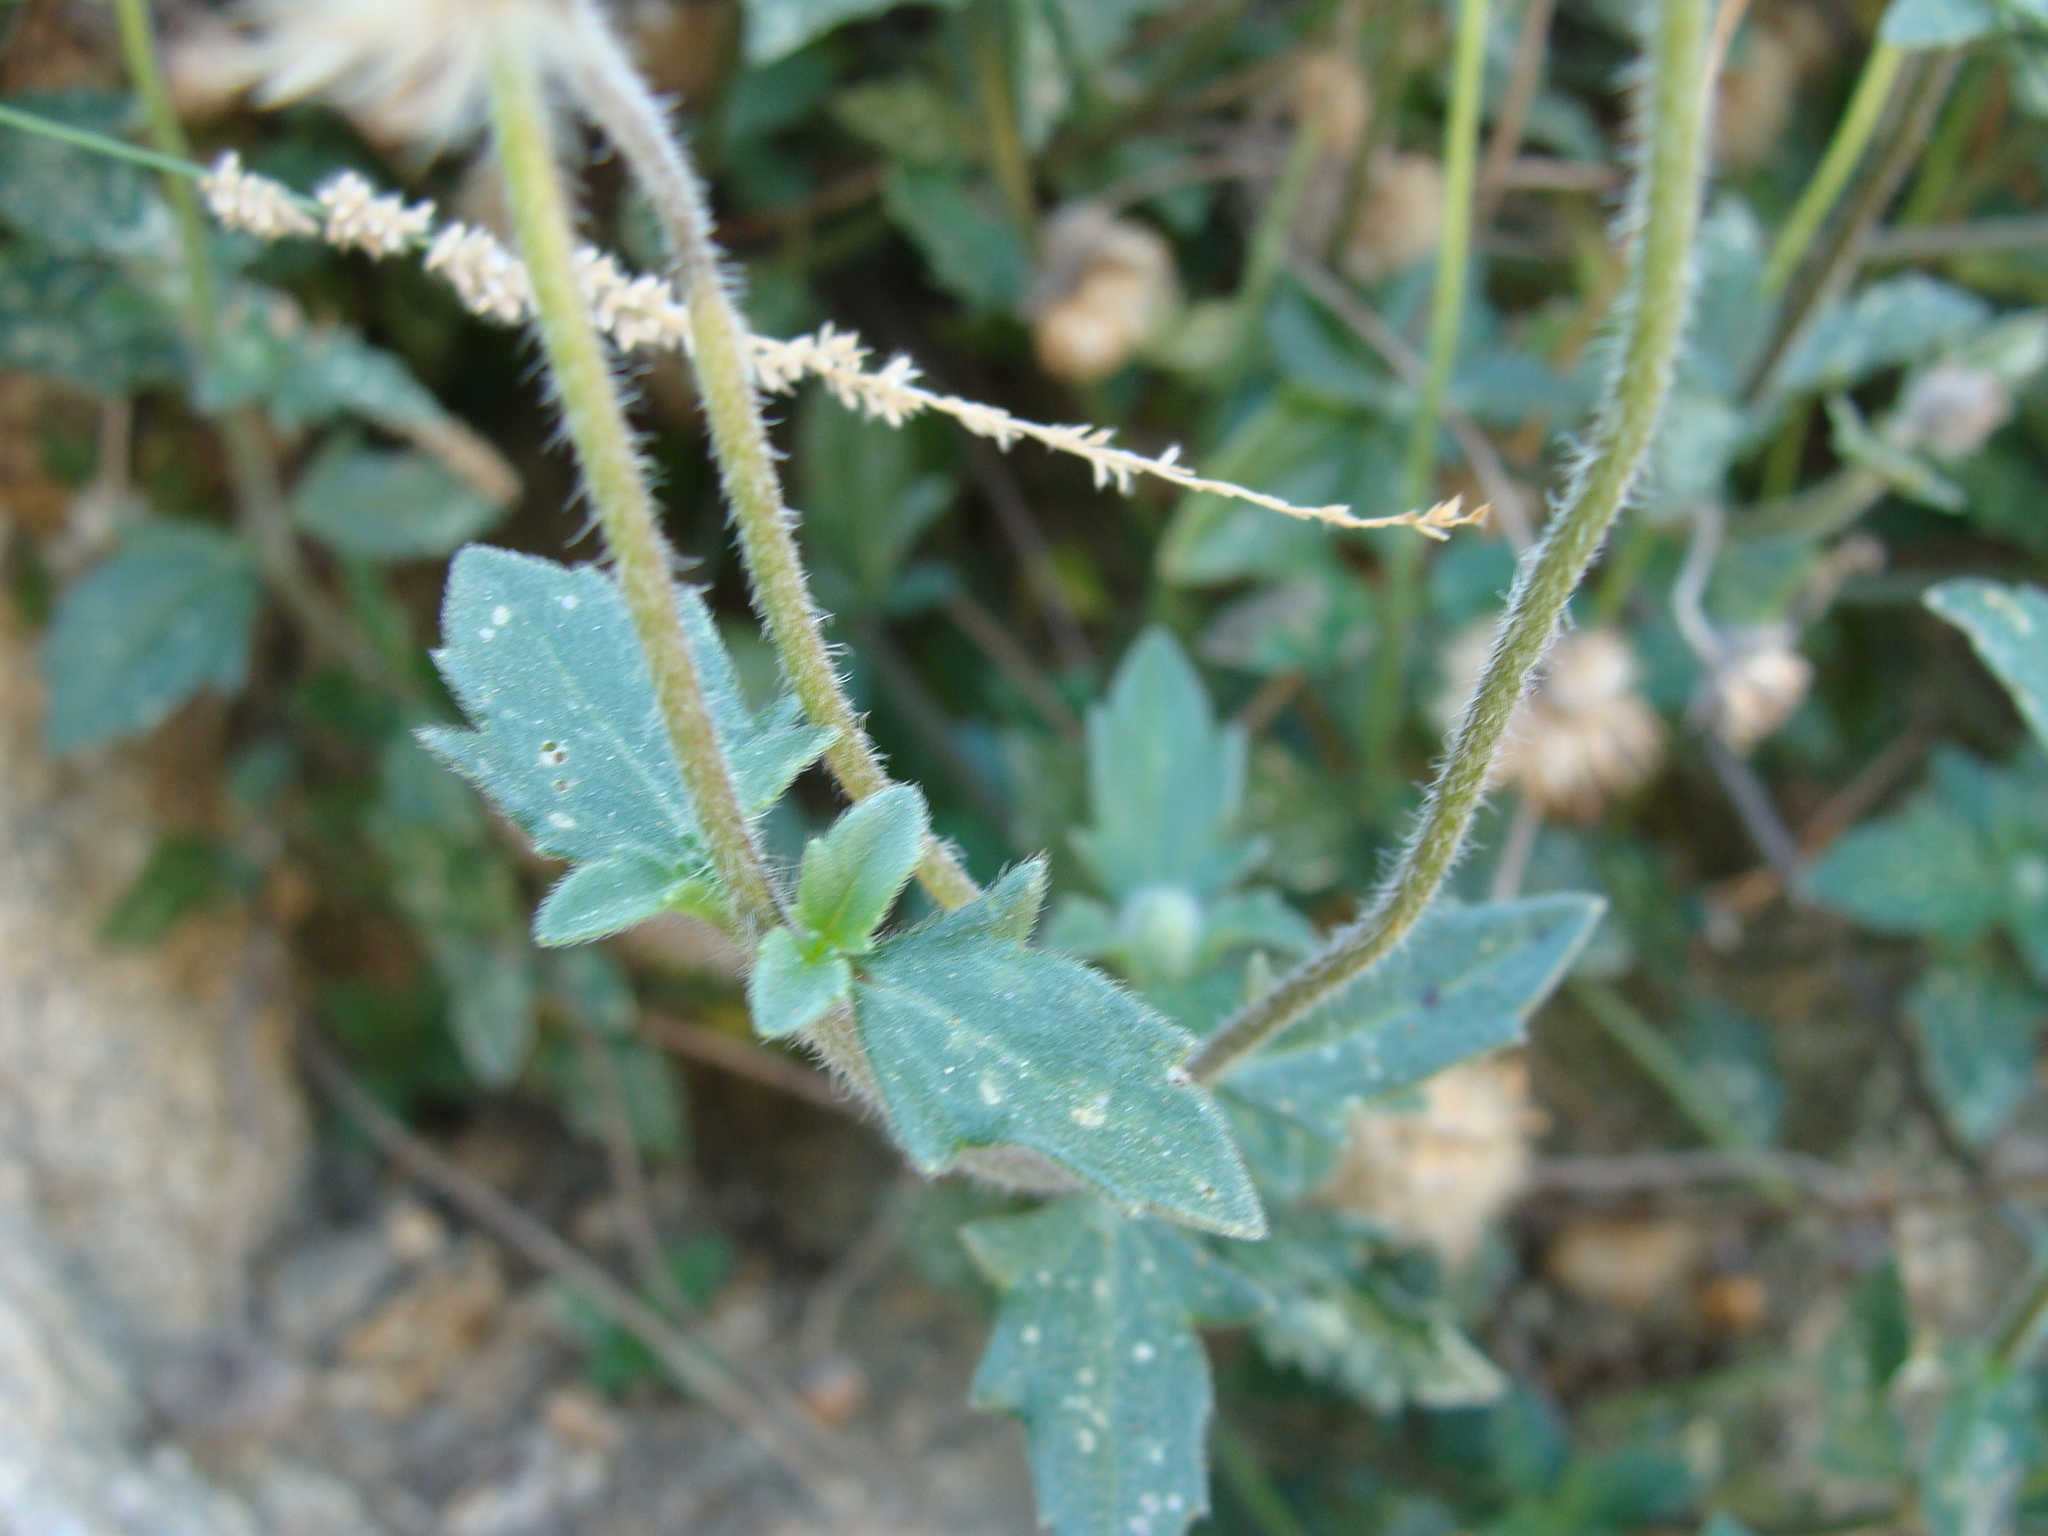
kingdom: Plantae
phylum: Tracheophyta
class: Magnoliopsida
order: Asterales
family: Asteraceae
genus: Tridax
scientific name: Tridax procumbens
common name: Coatbuttons
